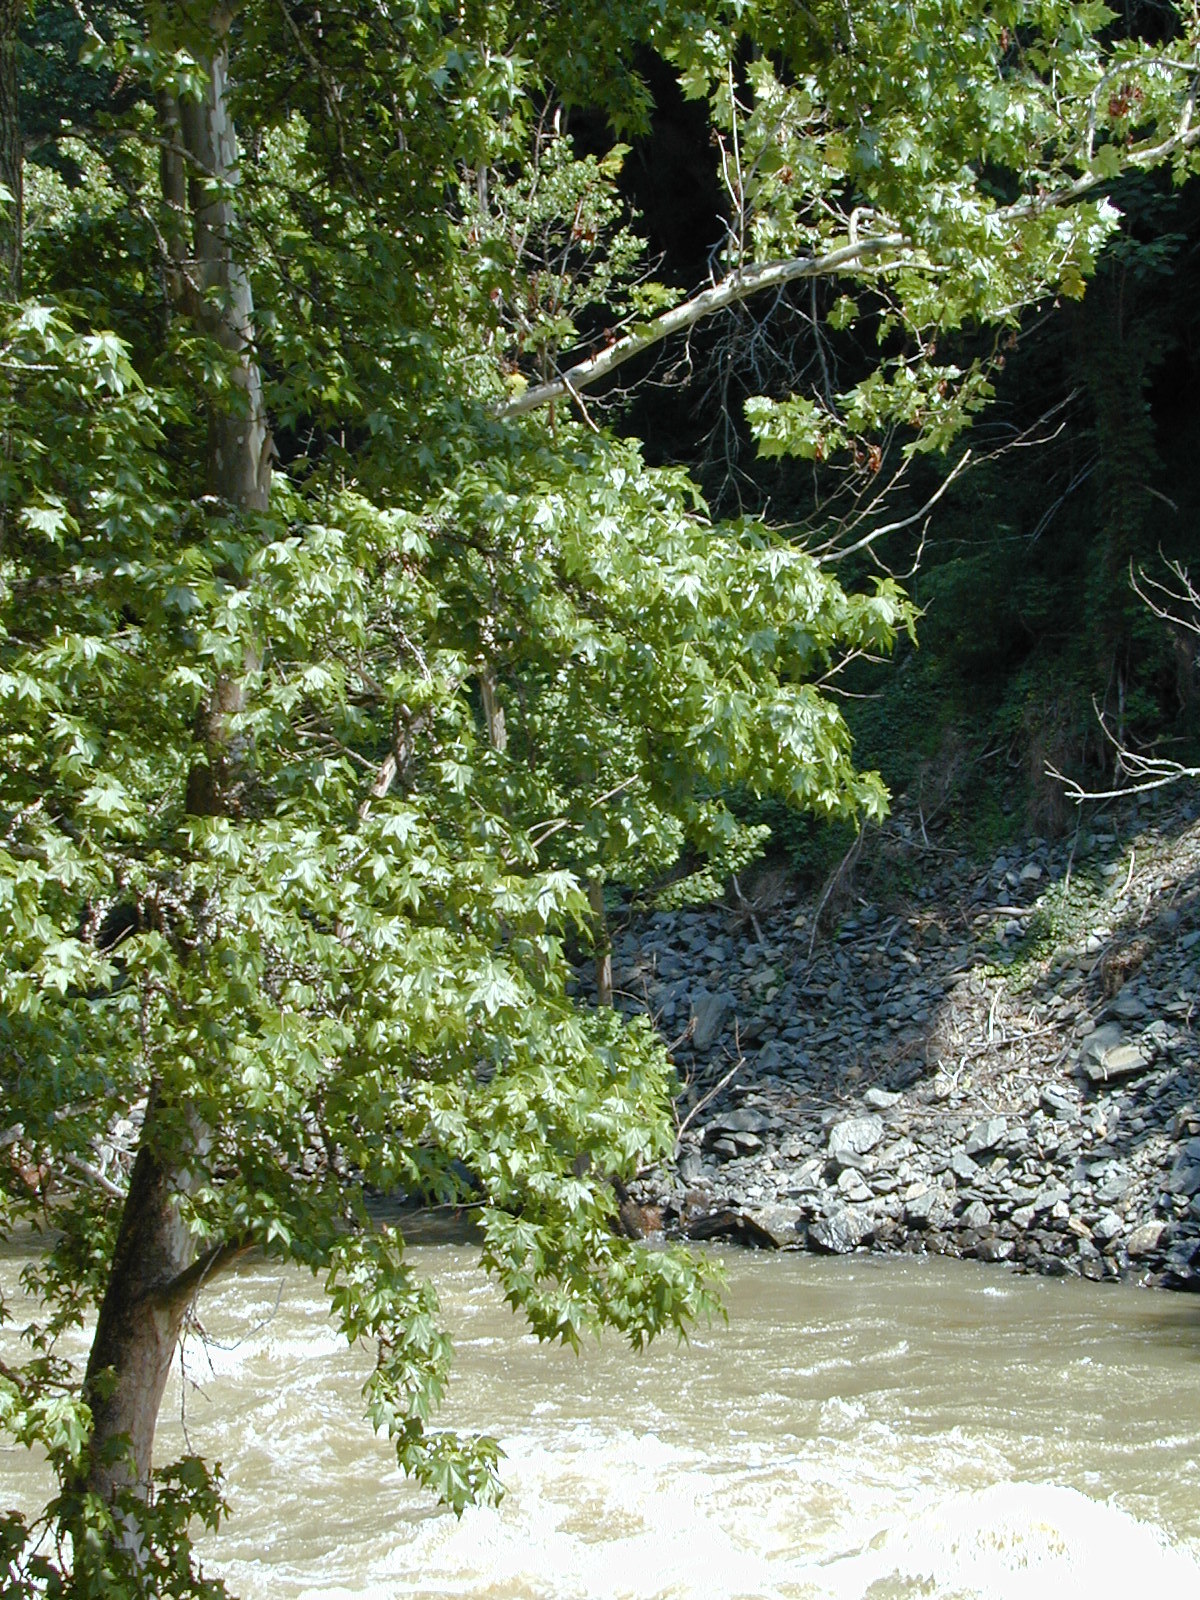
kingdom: Plantae
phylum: Tracheophyta
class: Magnoliopsida
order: Saxifragales
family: Altingiaceae
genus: Liquidambar
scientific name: Liquidambar styraciflua
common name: Sweet gum
